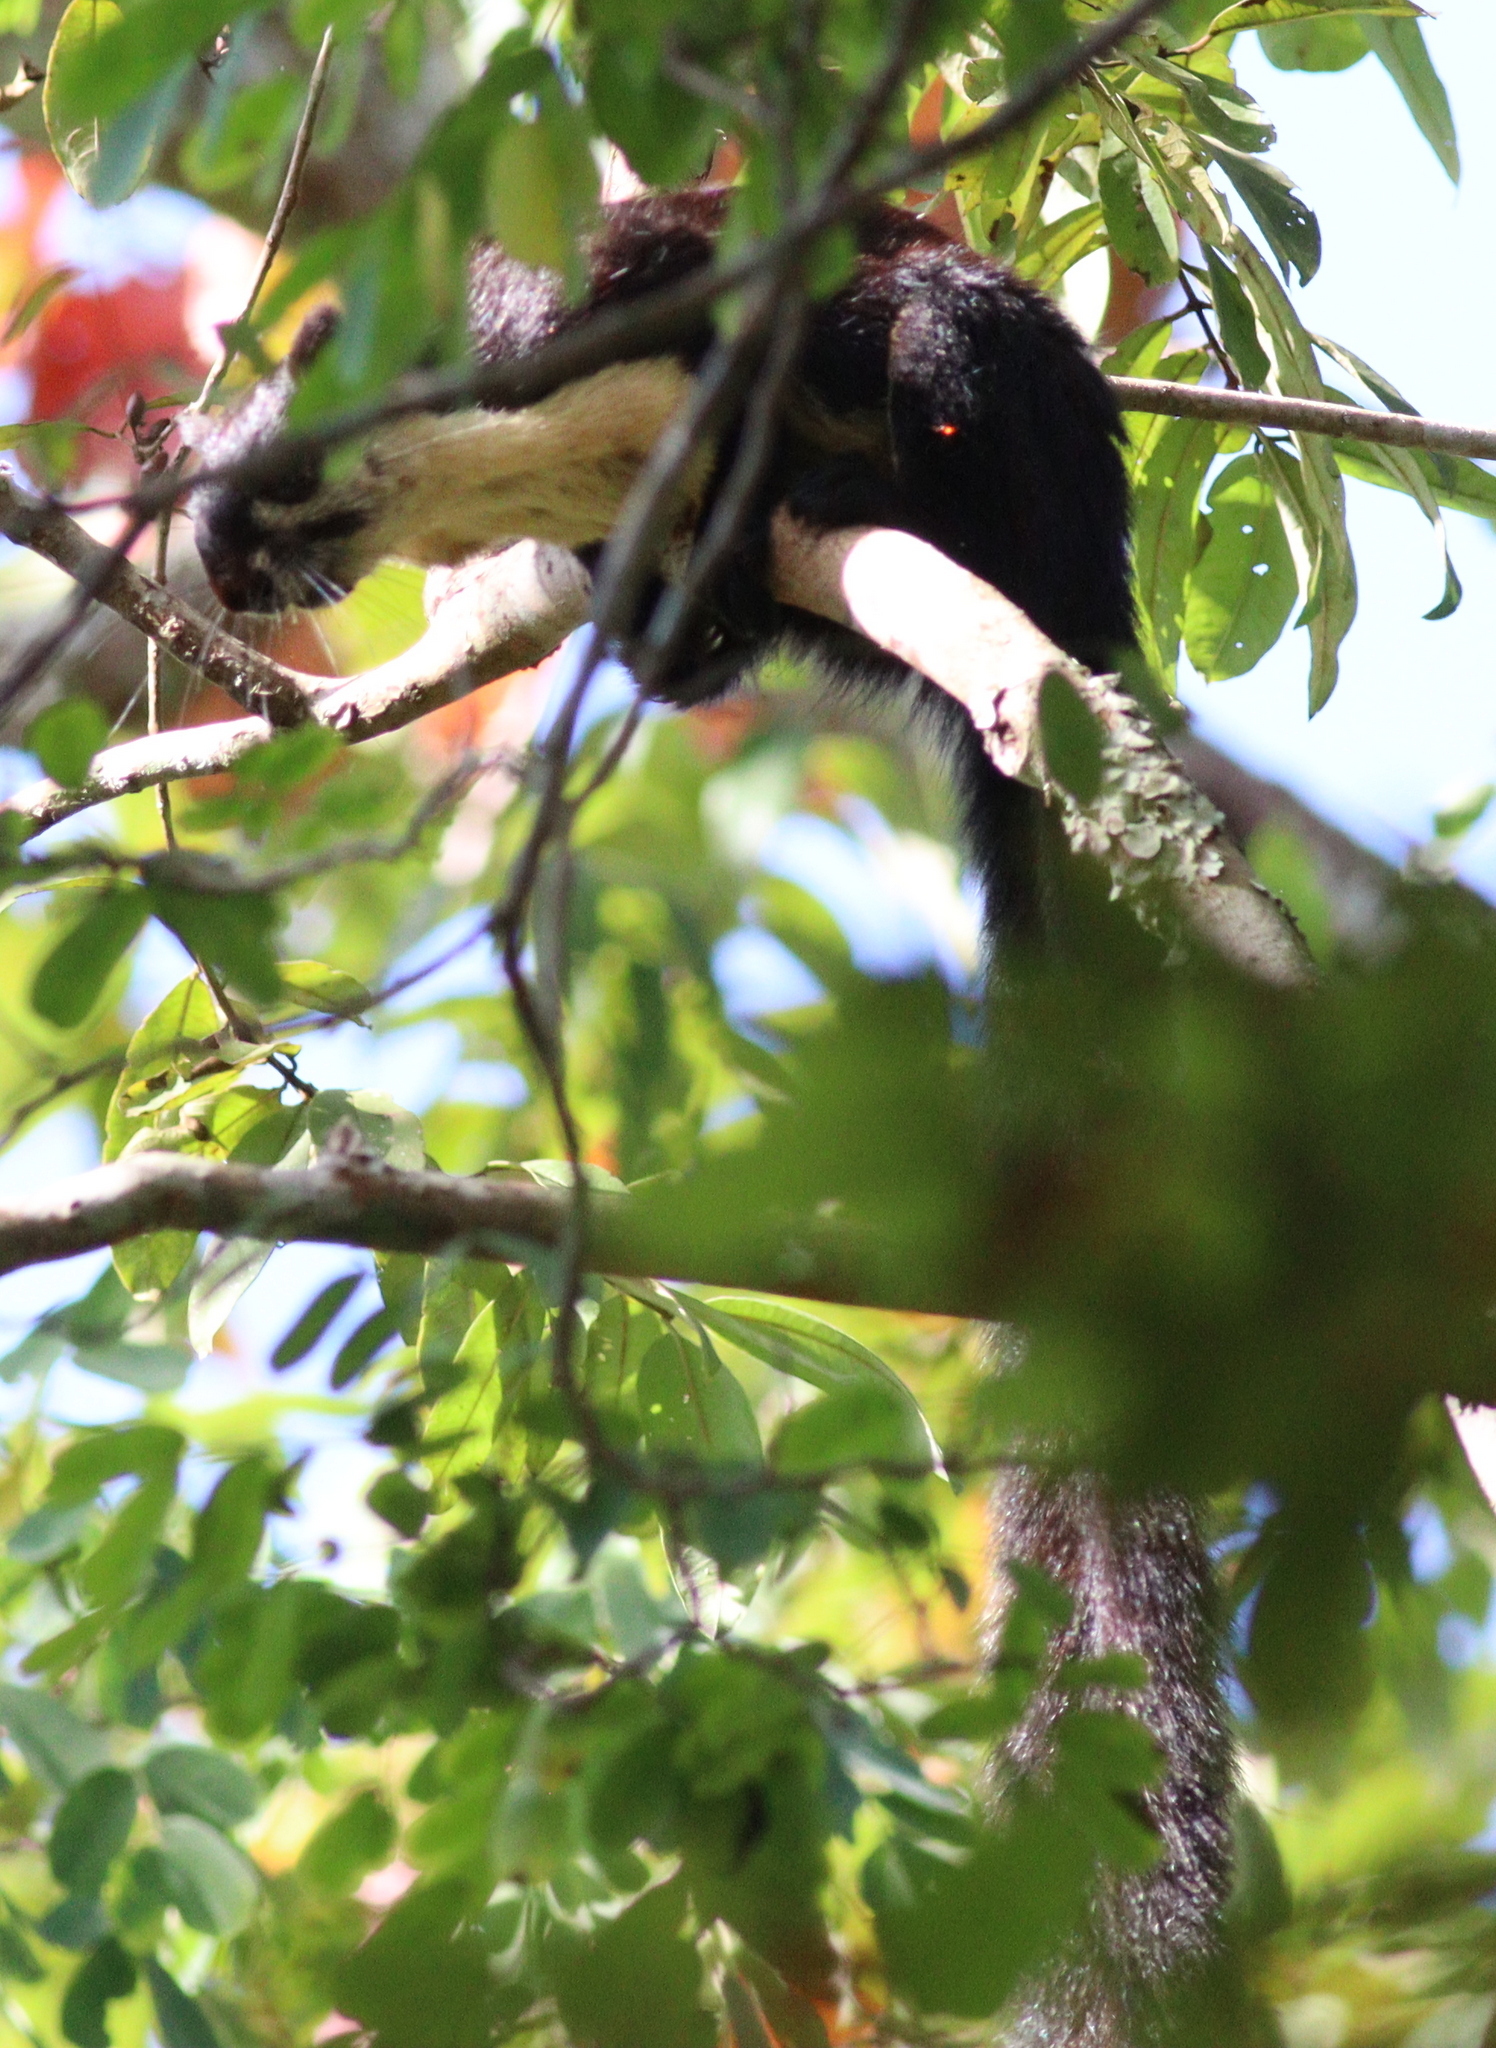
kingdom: Animalia
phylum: Chordata
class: Mammalia
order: Rodentia
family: Sciuridae
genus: Ratufa
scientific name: Ratufa bicolor
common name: Black giant squirrel
